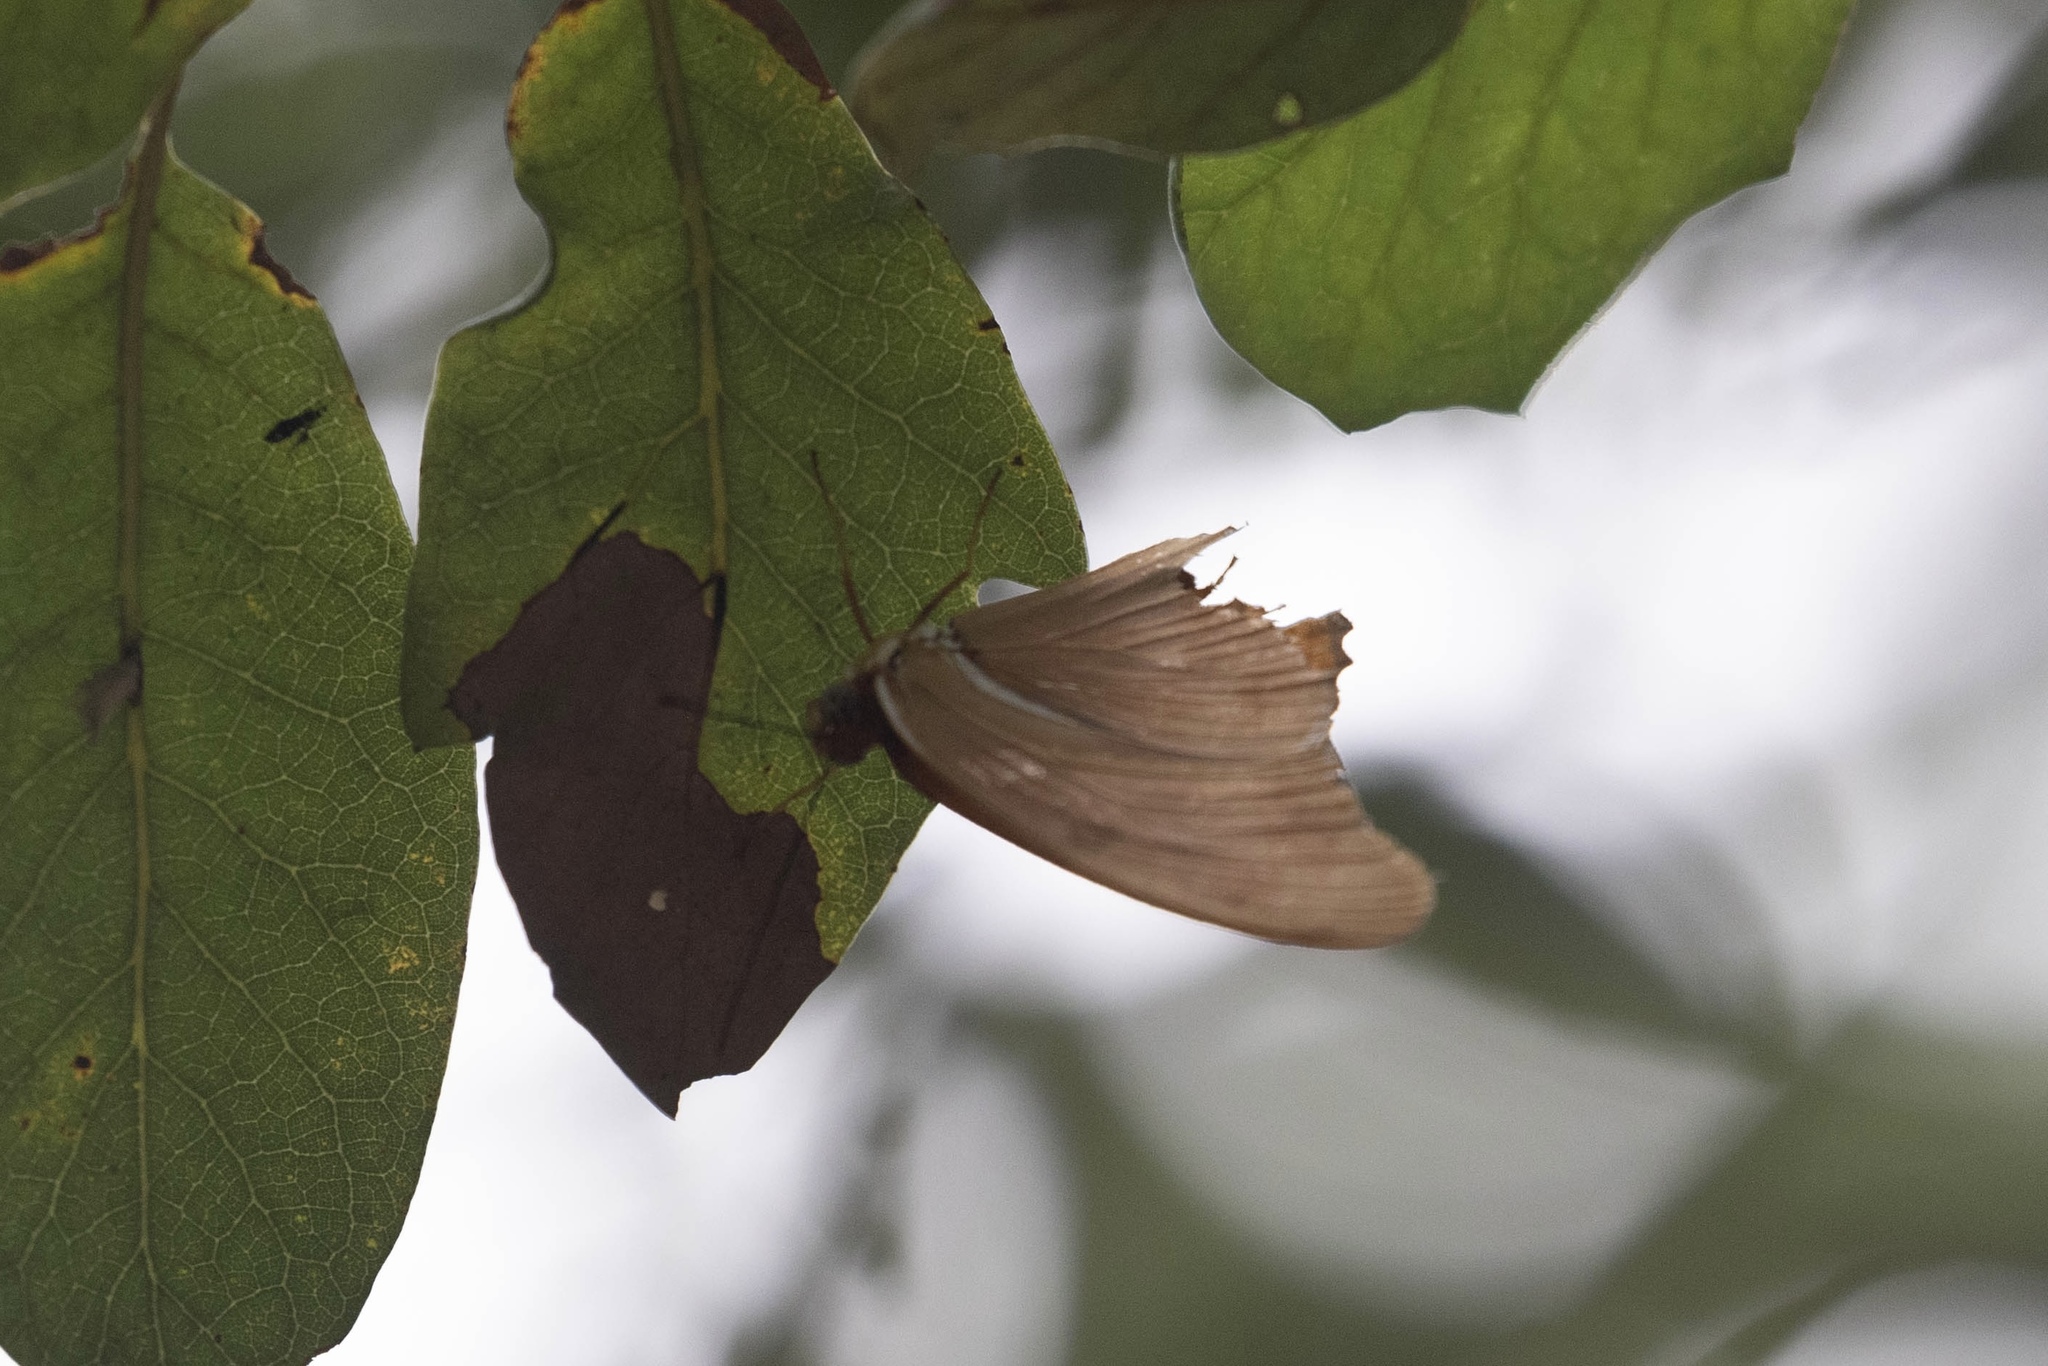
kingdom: Animalia
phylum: Arthropoda
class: Insecta
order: Lepidoptera
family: Nymphalidae
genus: Dryas
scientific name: Dryas iulia
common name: Flambeau
